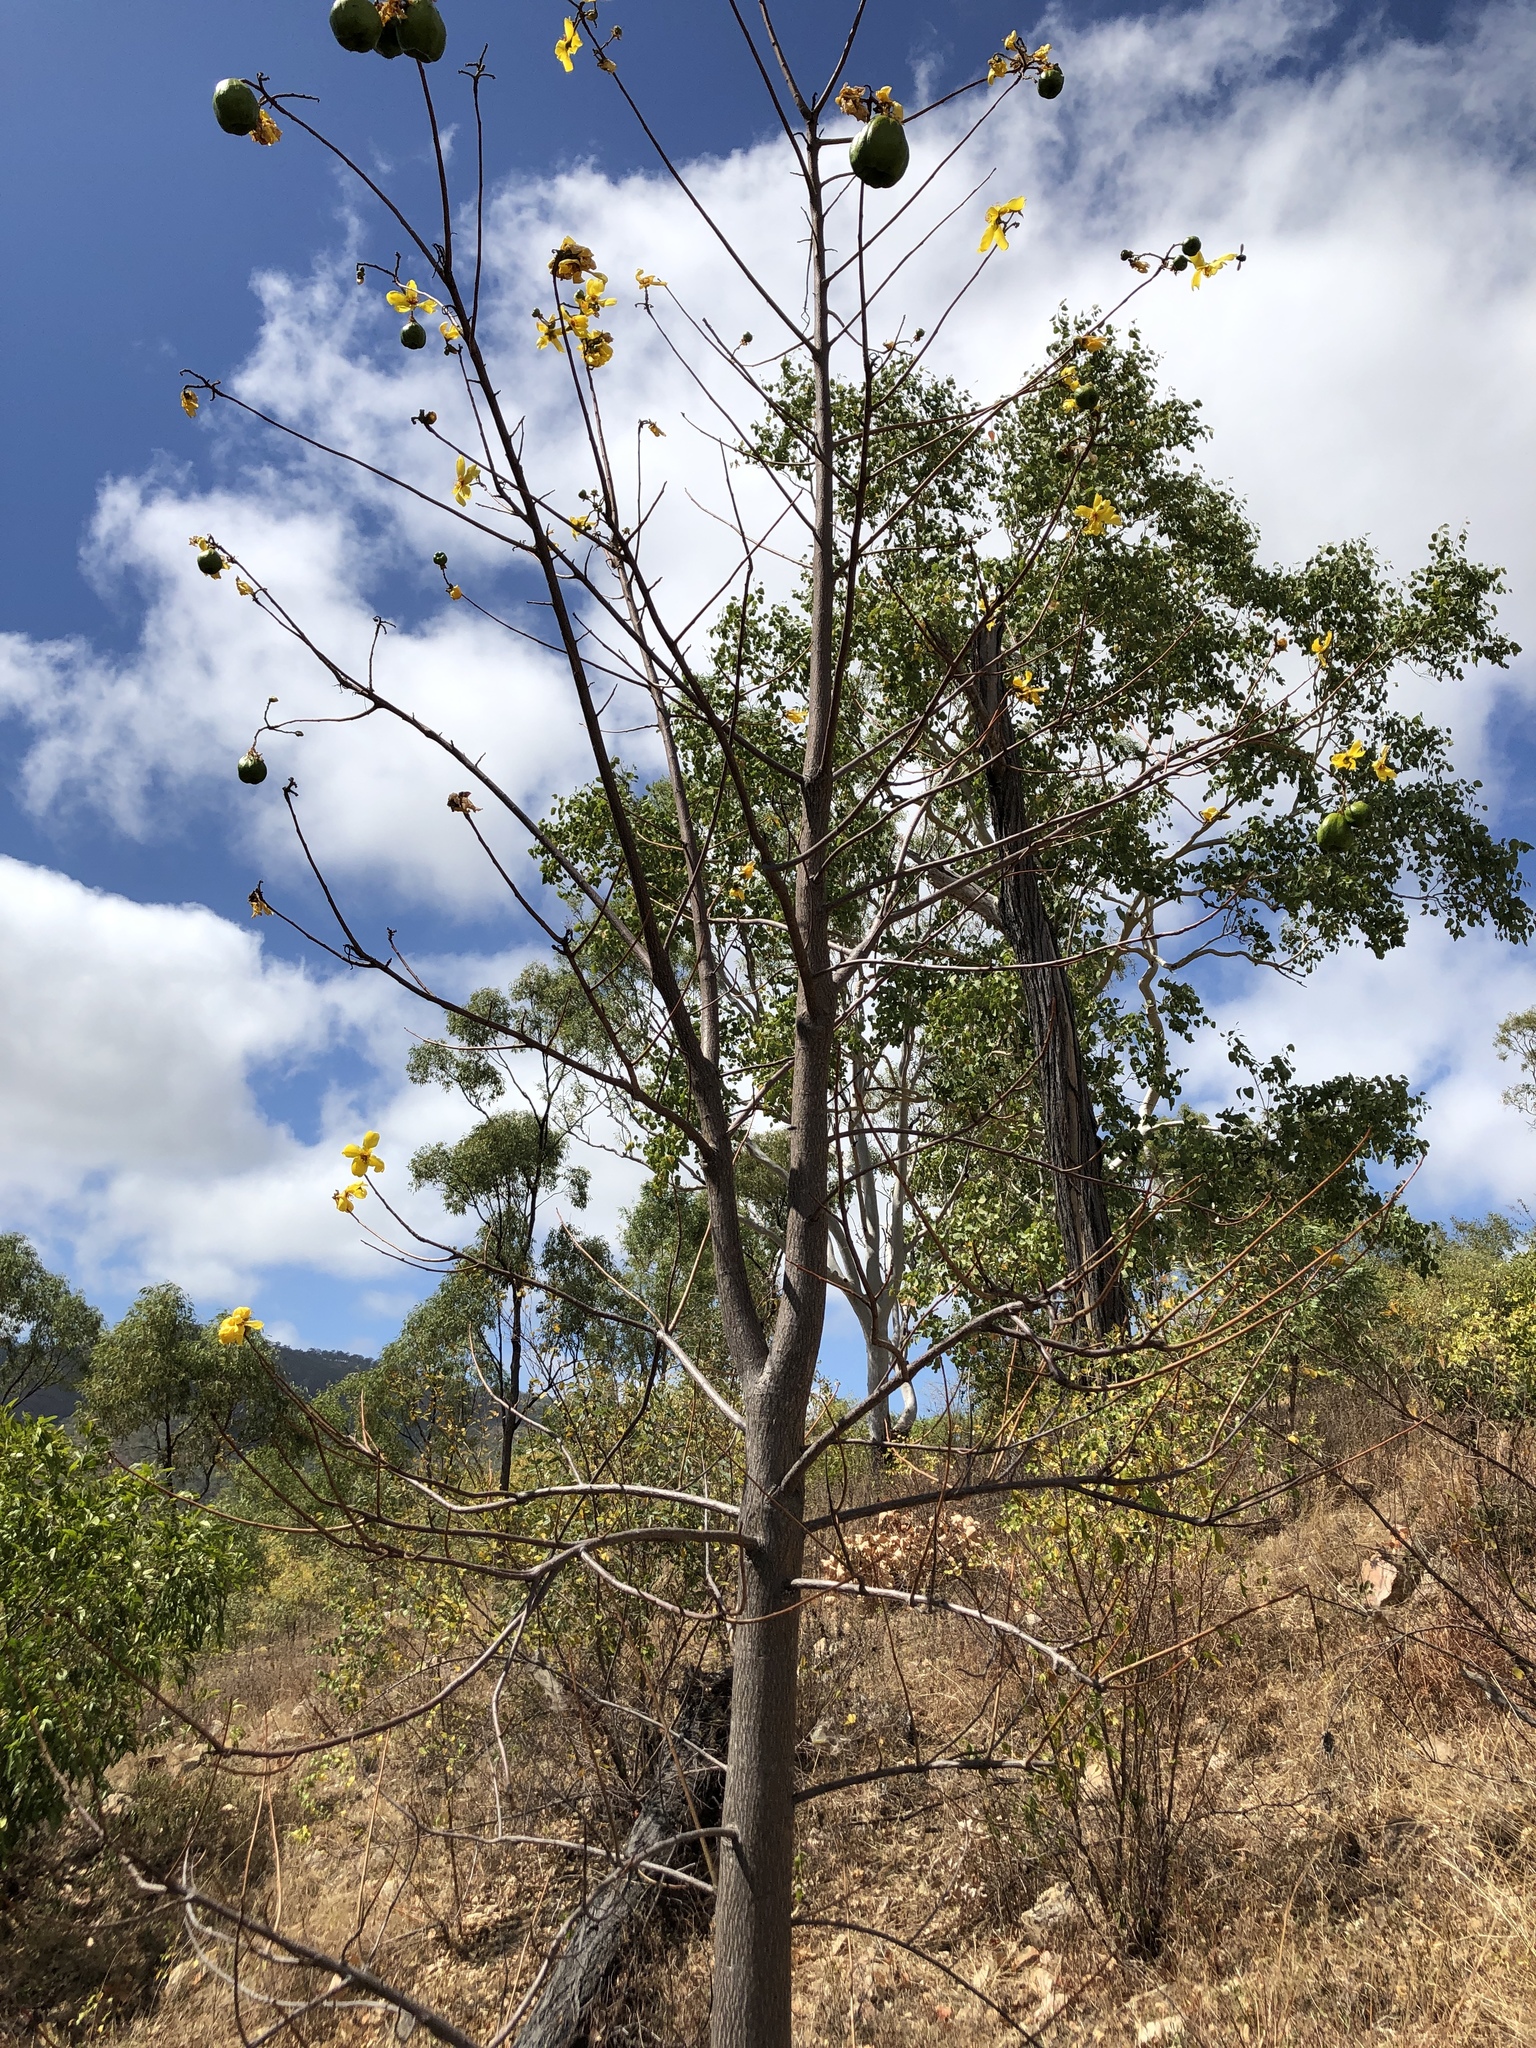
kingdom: Plantae
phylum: Tracheophyta
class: Magnoliopsida
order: Malvales
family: Cochlospermaceae
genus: Cochlospermum
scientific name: Cochlospermum gillivraei
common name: Cottontree
